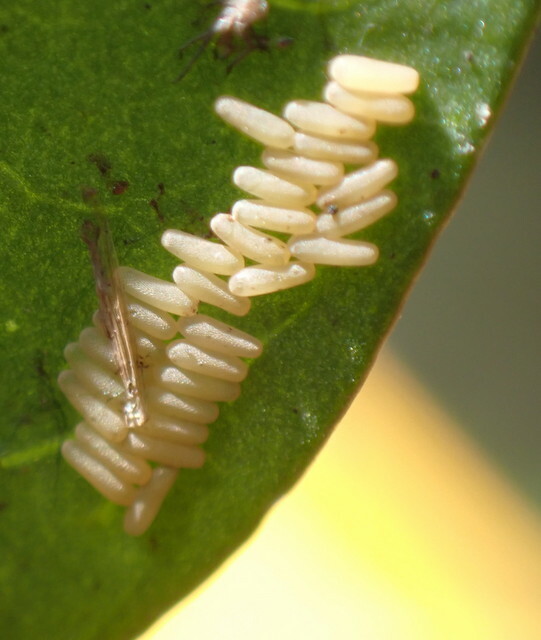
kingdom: Animalia
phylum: Arthropoda
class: Insecta
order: Coleoptera
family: Chrysomelidae
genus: Agasicles
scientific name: Agasicles hygrophila
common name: Alligatorweed flea beetle
